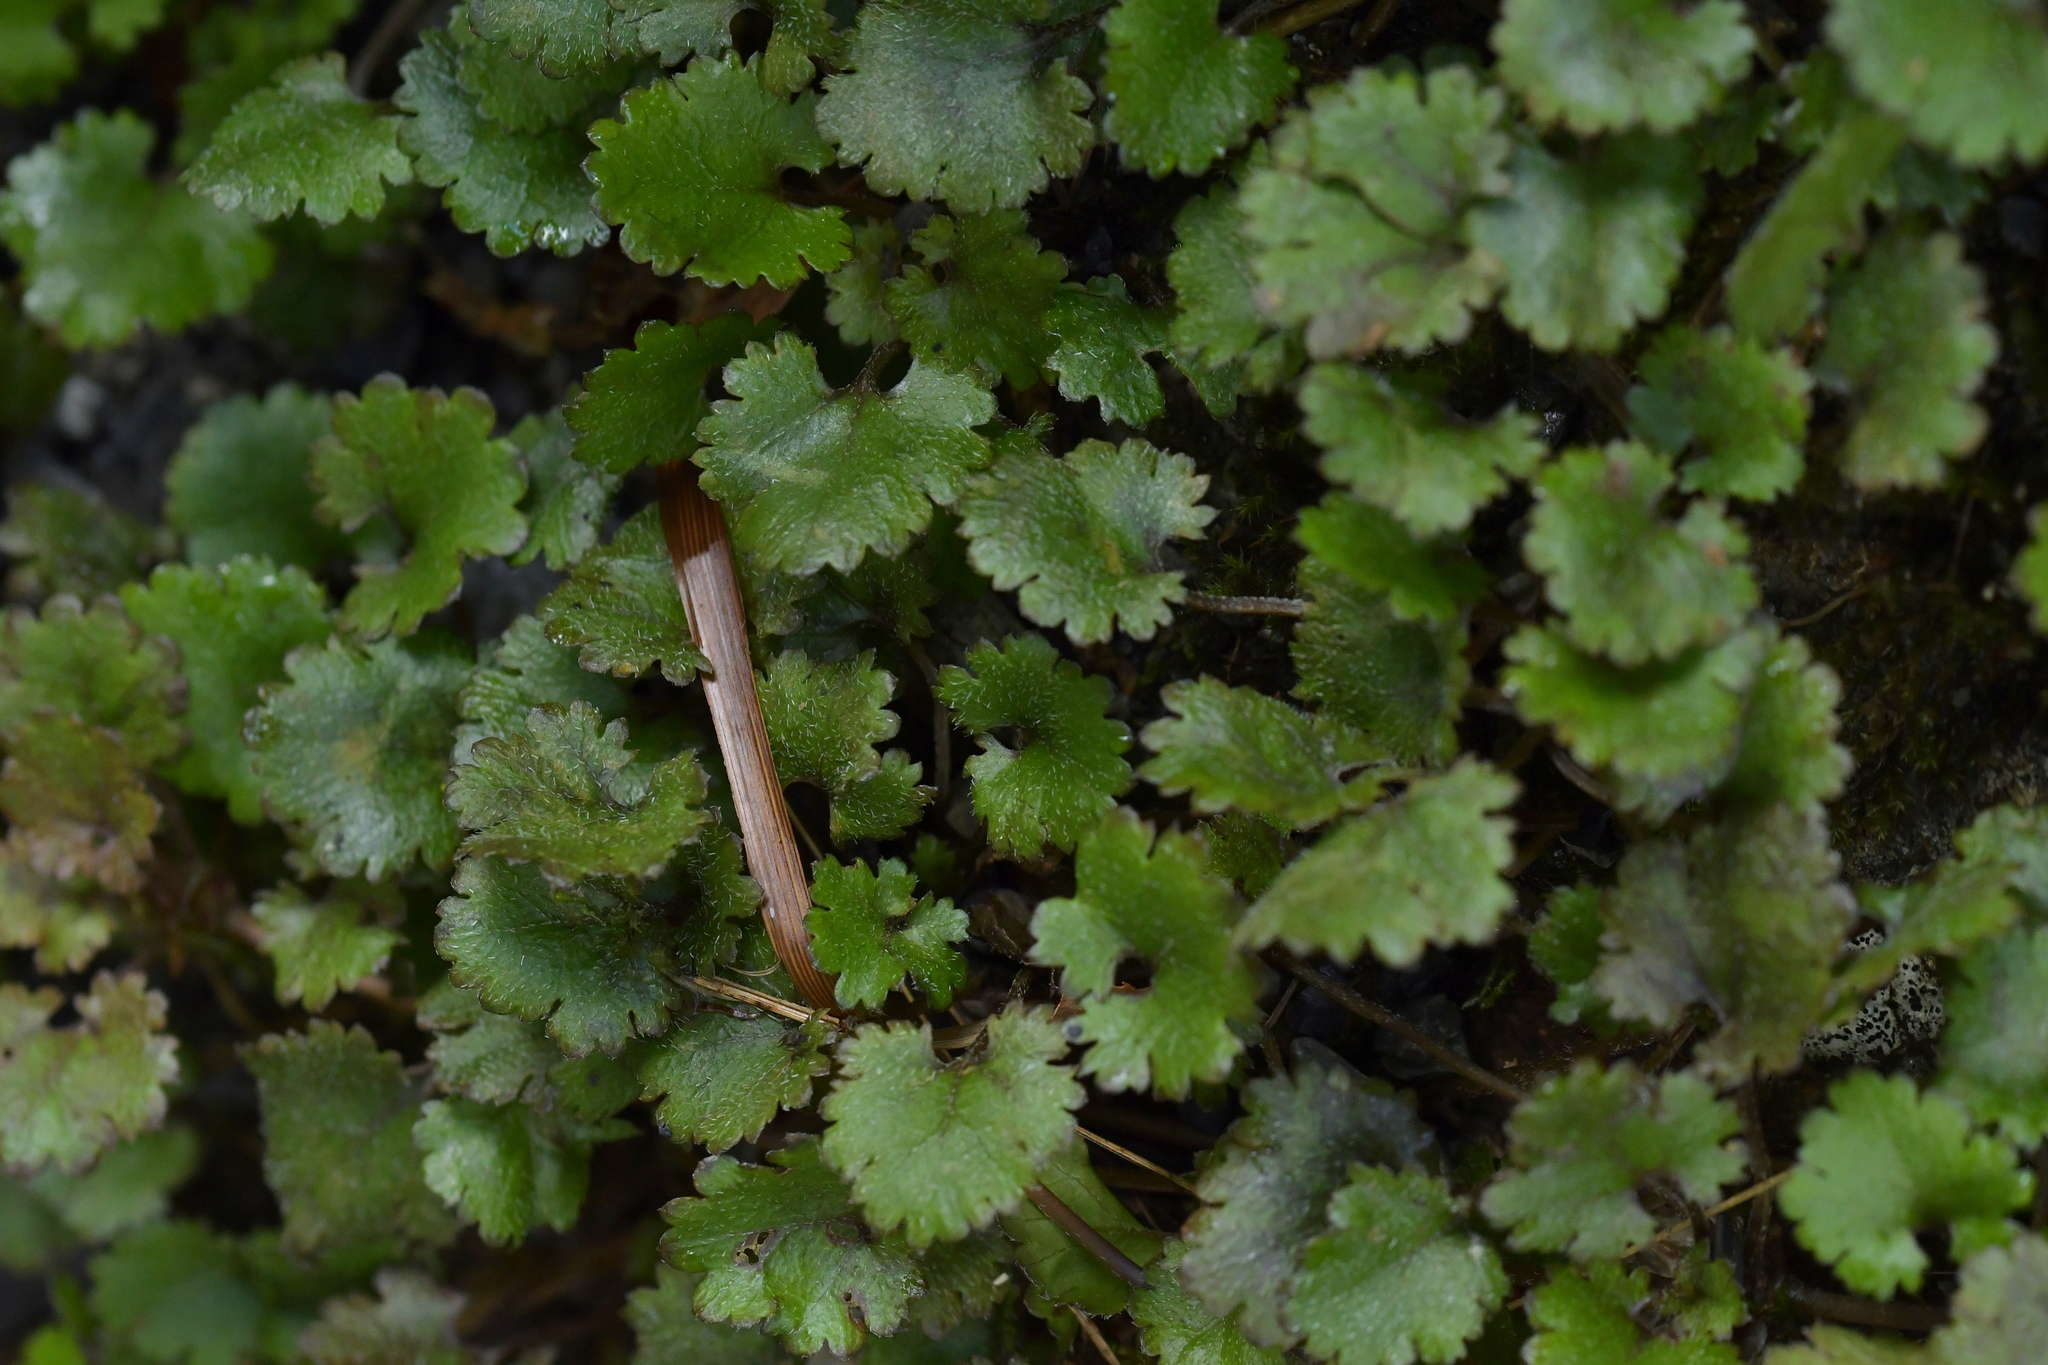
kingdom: Plantae
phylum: Tracheophyta
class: Magnoliopsida
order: Gunnerales
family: Gunneraceae
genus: Gunnera
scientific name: Gunnera monoica
